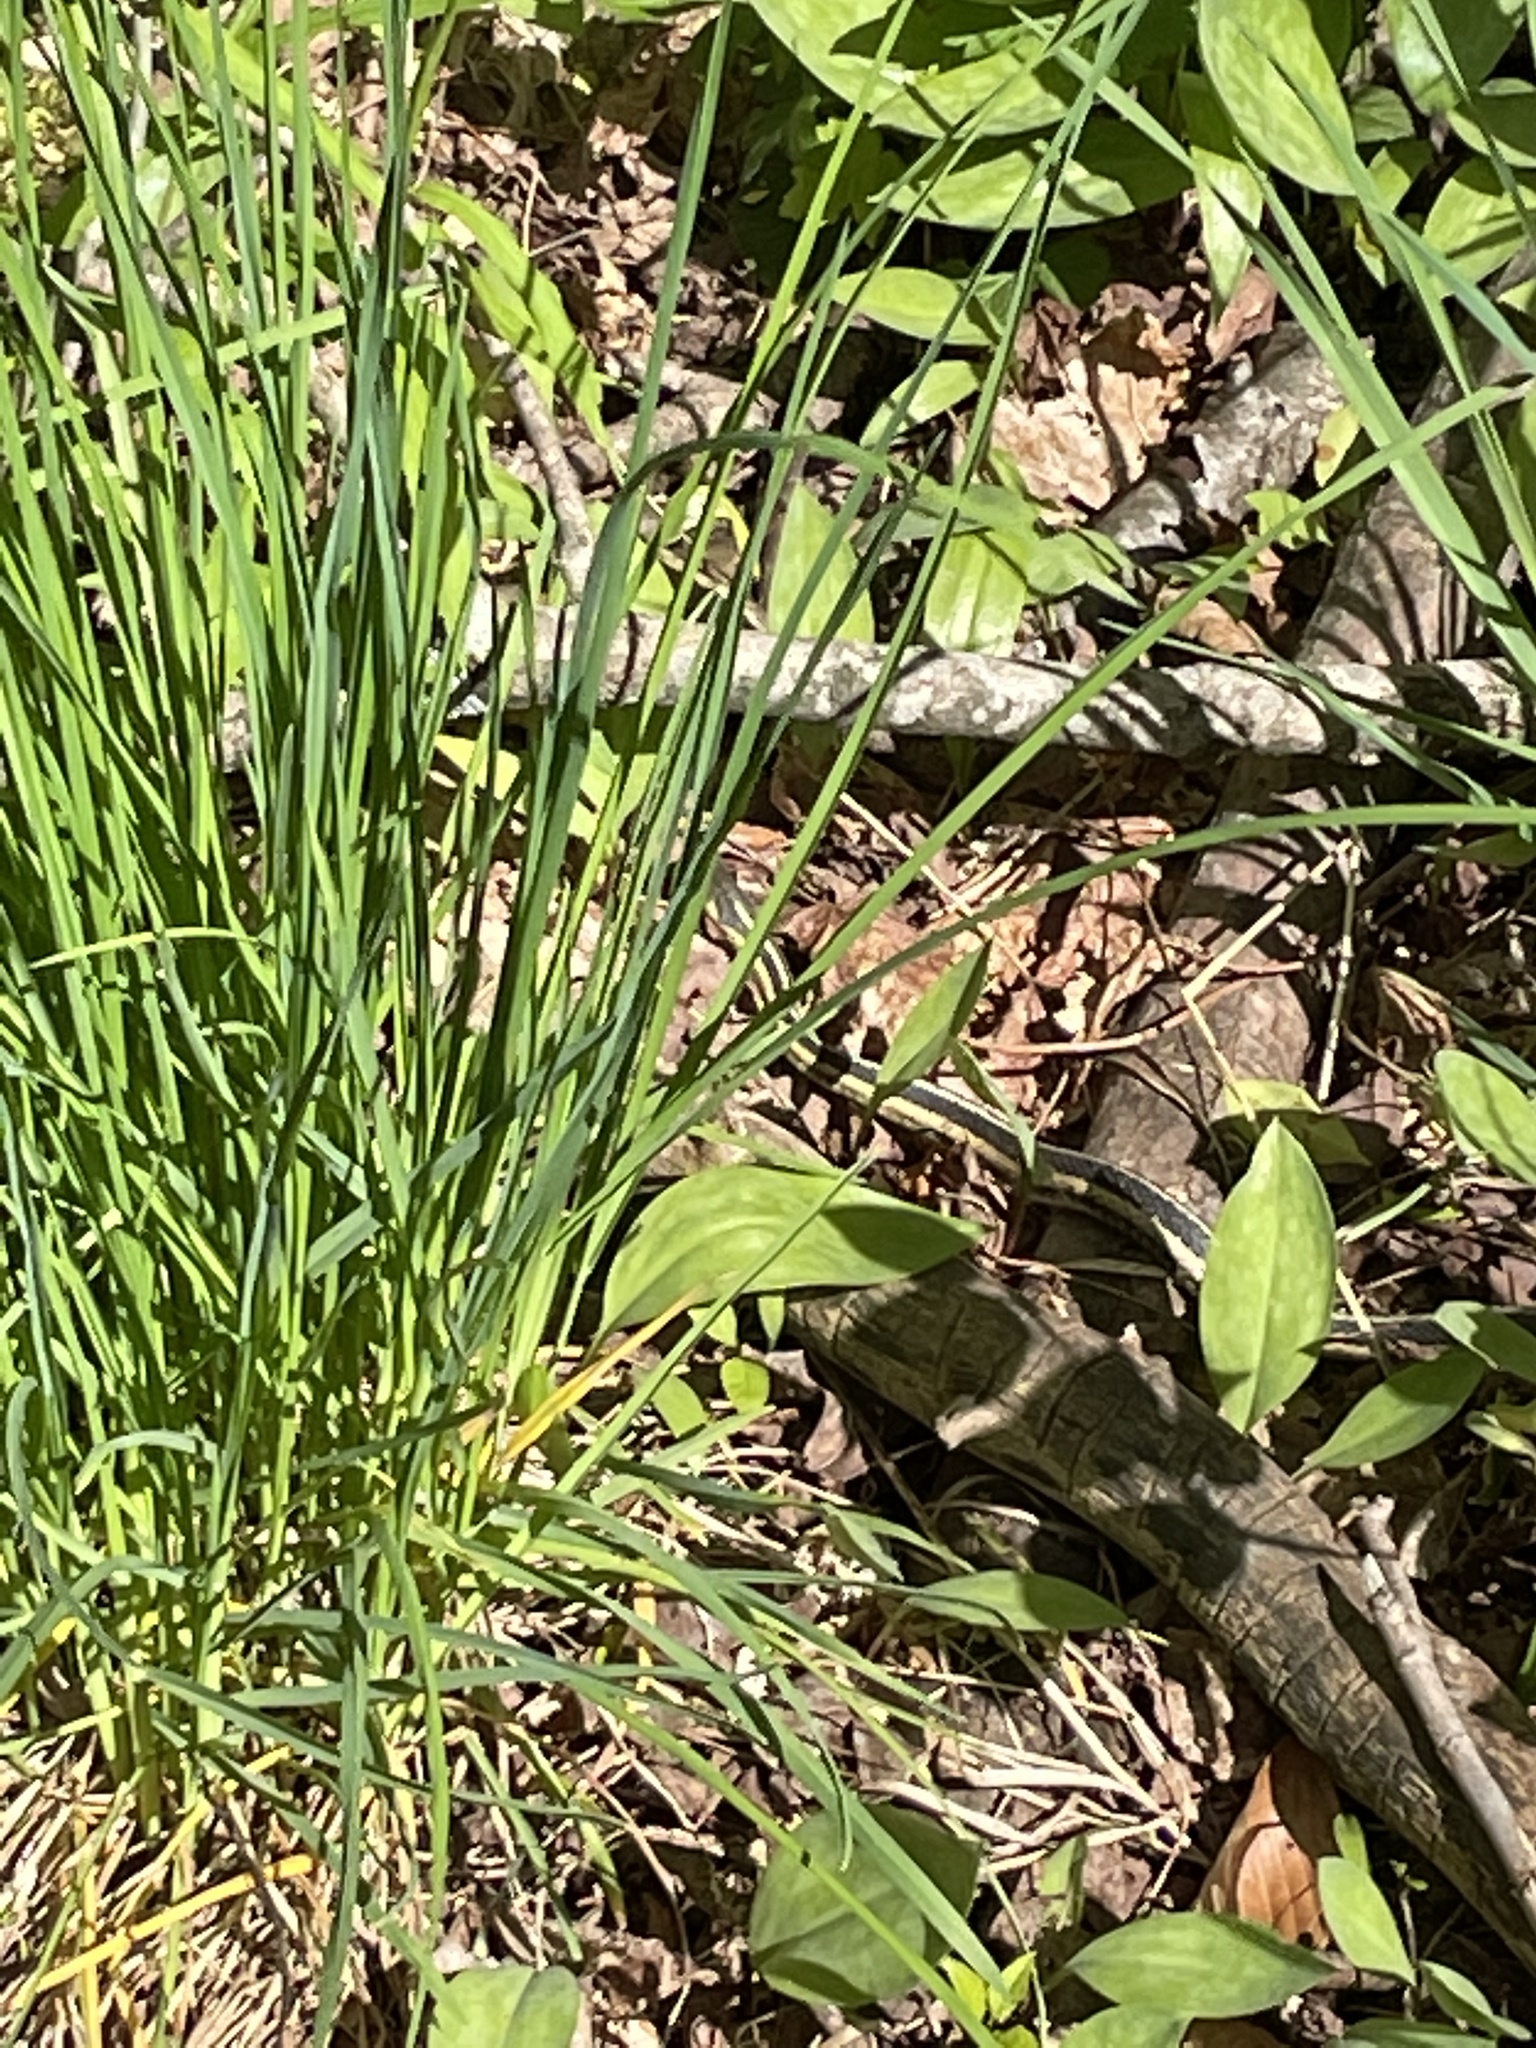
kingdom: Animalia
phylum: Chordata
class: Squamata
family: Colubridae
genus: Thamnophis
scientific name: Thamnophis sirtalis
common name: Common garter snake
